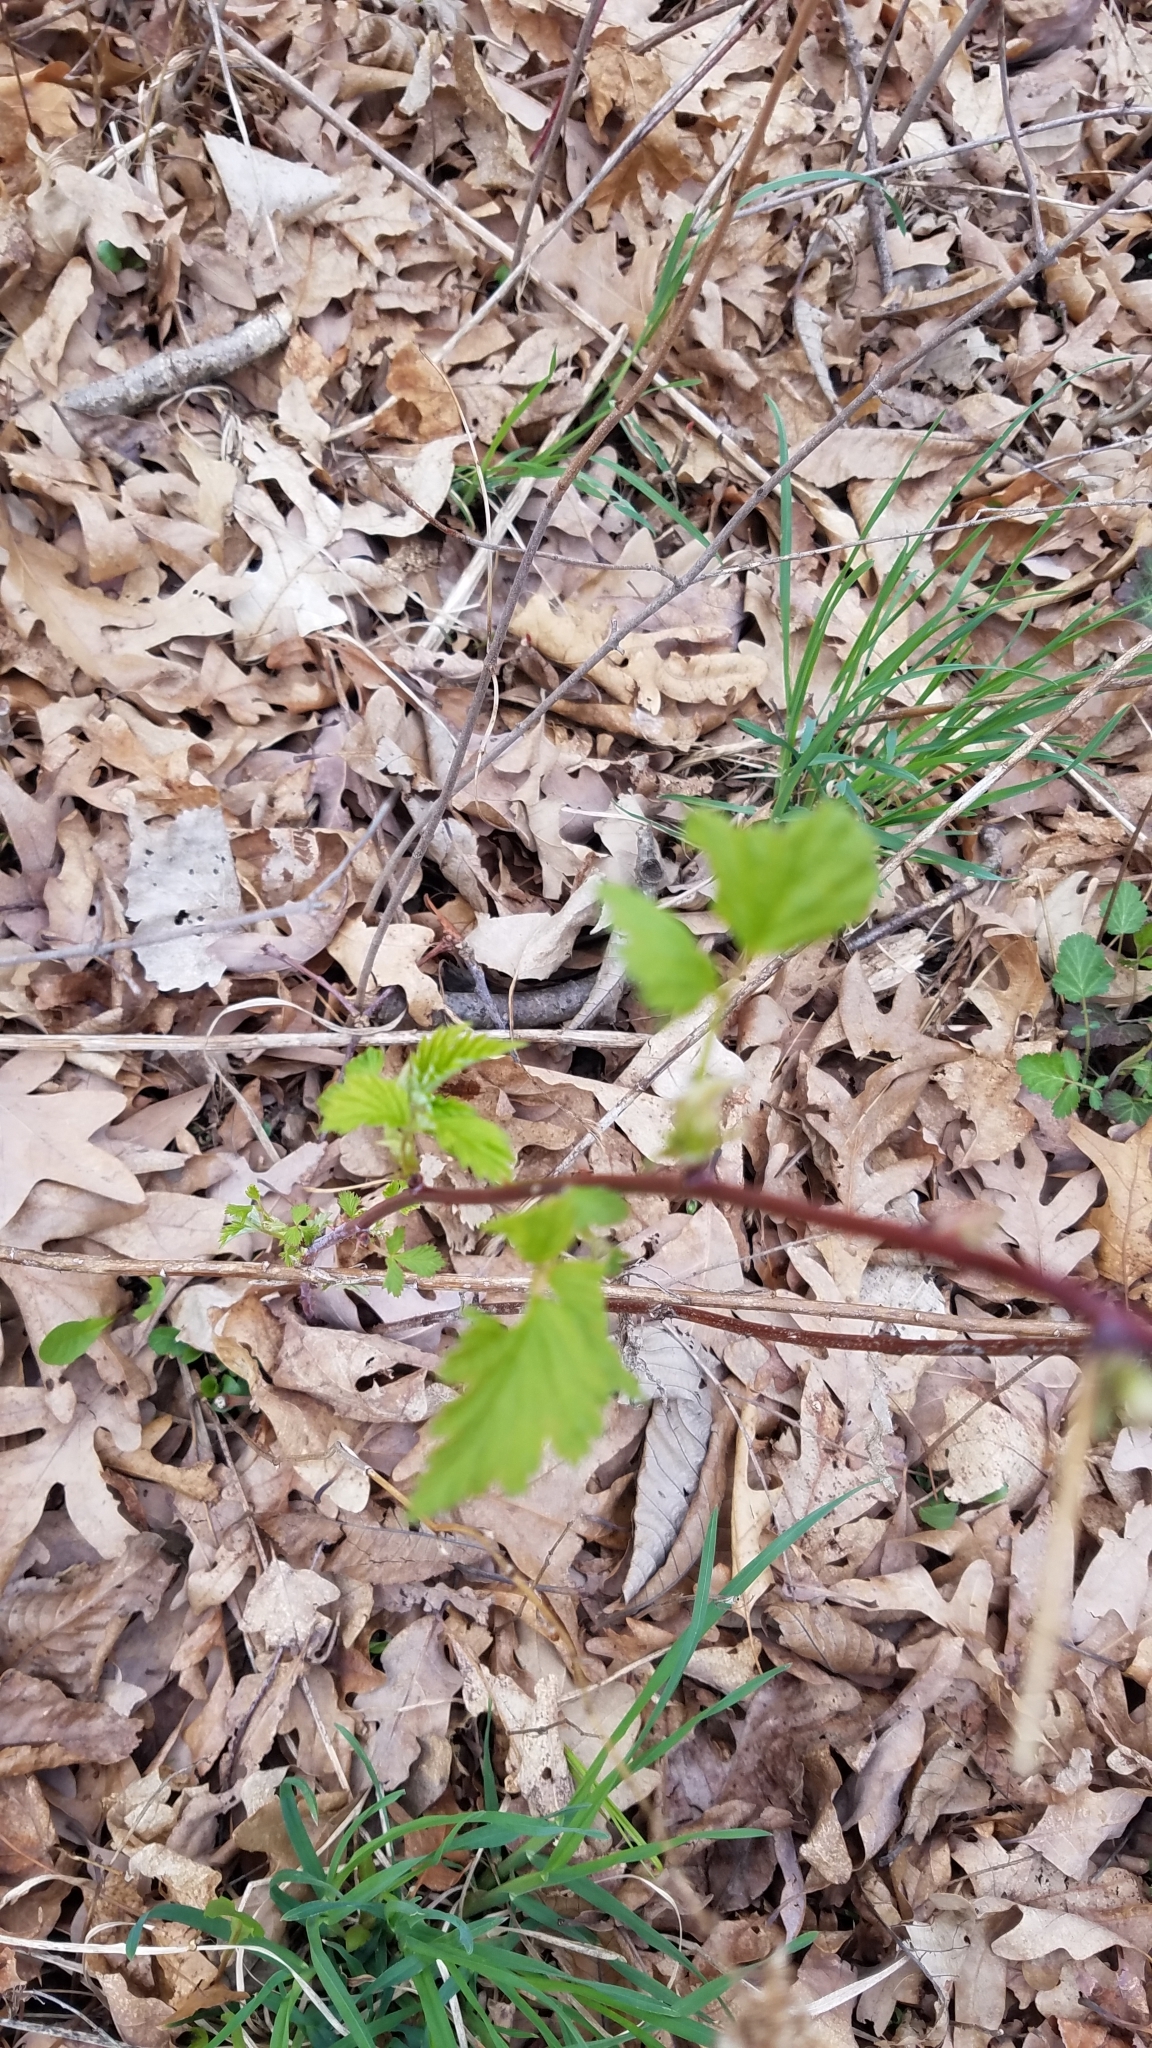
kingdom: Plantae
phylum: Tracheophyta
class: Magnoliopsida
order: Rosales
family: Rosaceae
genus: Rubus
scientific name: Rubus occidentalis
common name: Black raspberry
